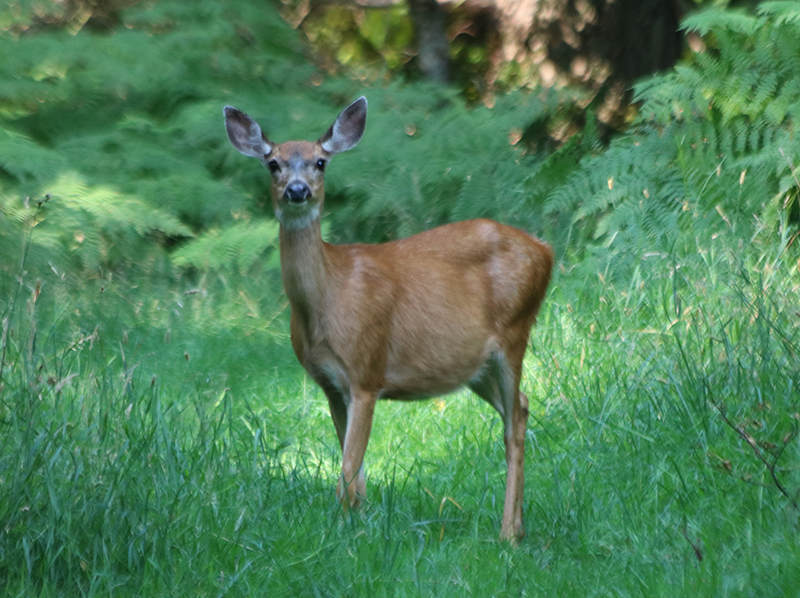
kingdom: Animalia
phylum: Chordata
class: Mammalia
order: Artiodactyla
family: Cervidae
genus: Odocoileus
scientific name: Odocoileus hemionus
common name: Mule deer
